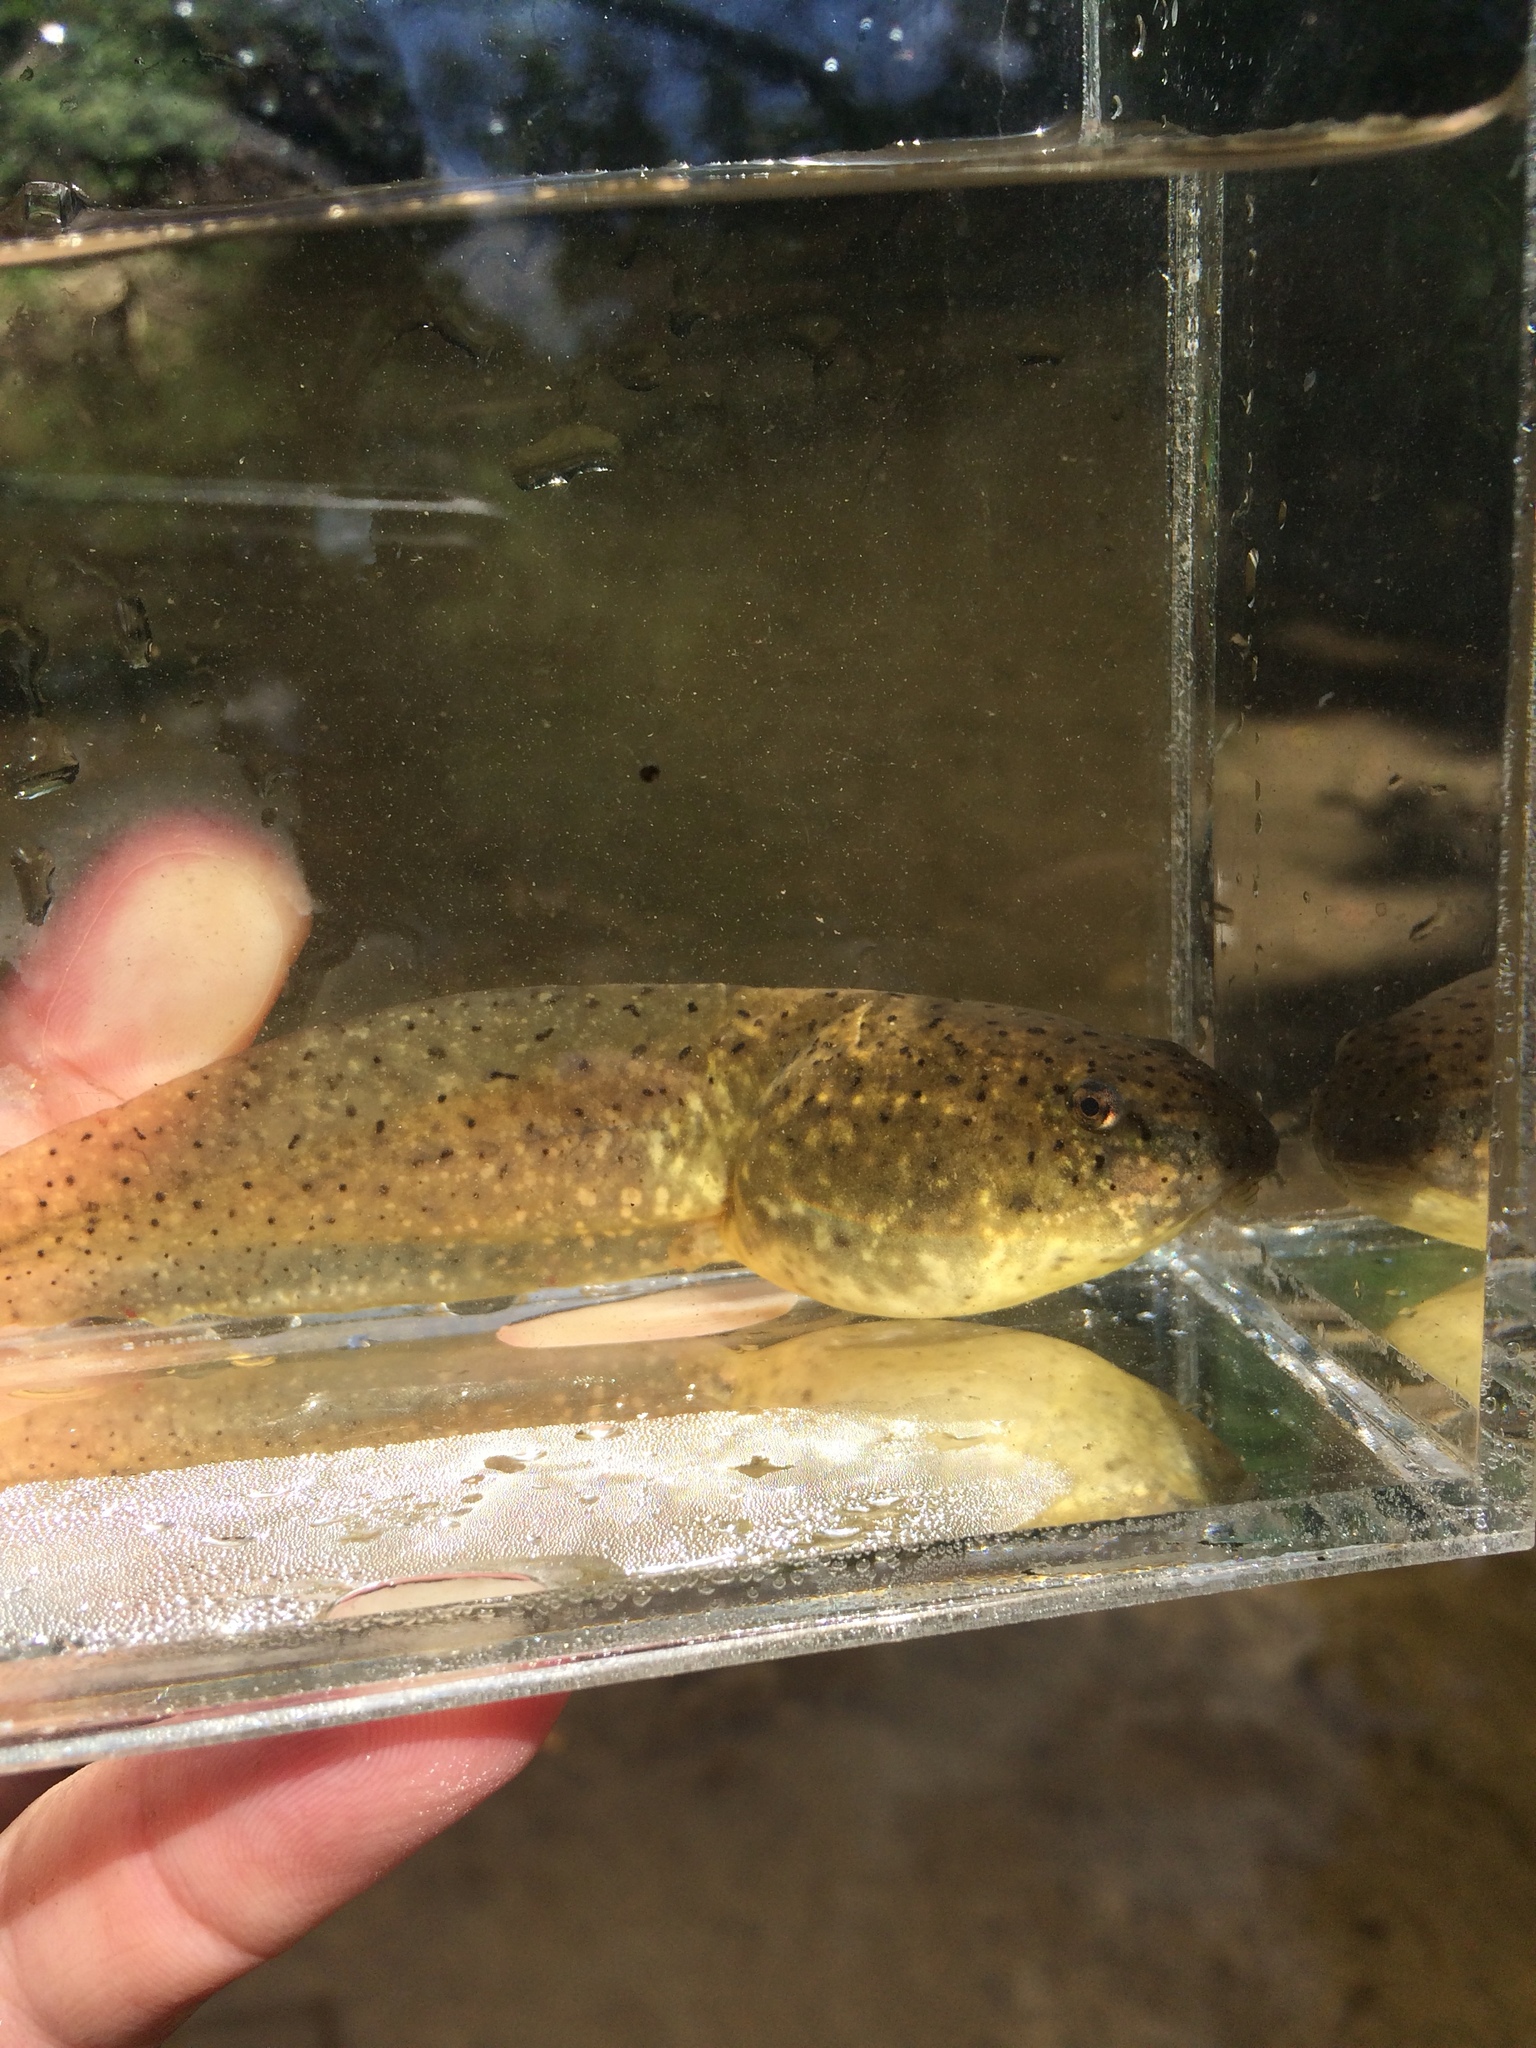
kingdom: Animalia
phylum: Chordata
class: Amphibia
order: Anura
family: Ranidae
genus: Lithobates
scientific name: Lithobates catesbeianus
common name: American bullfrog
